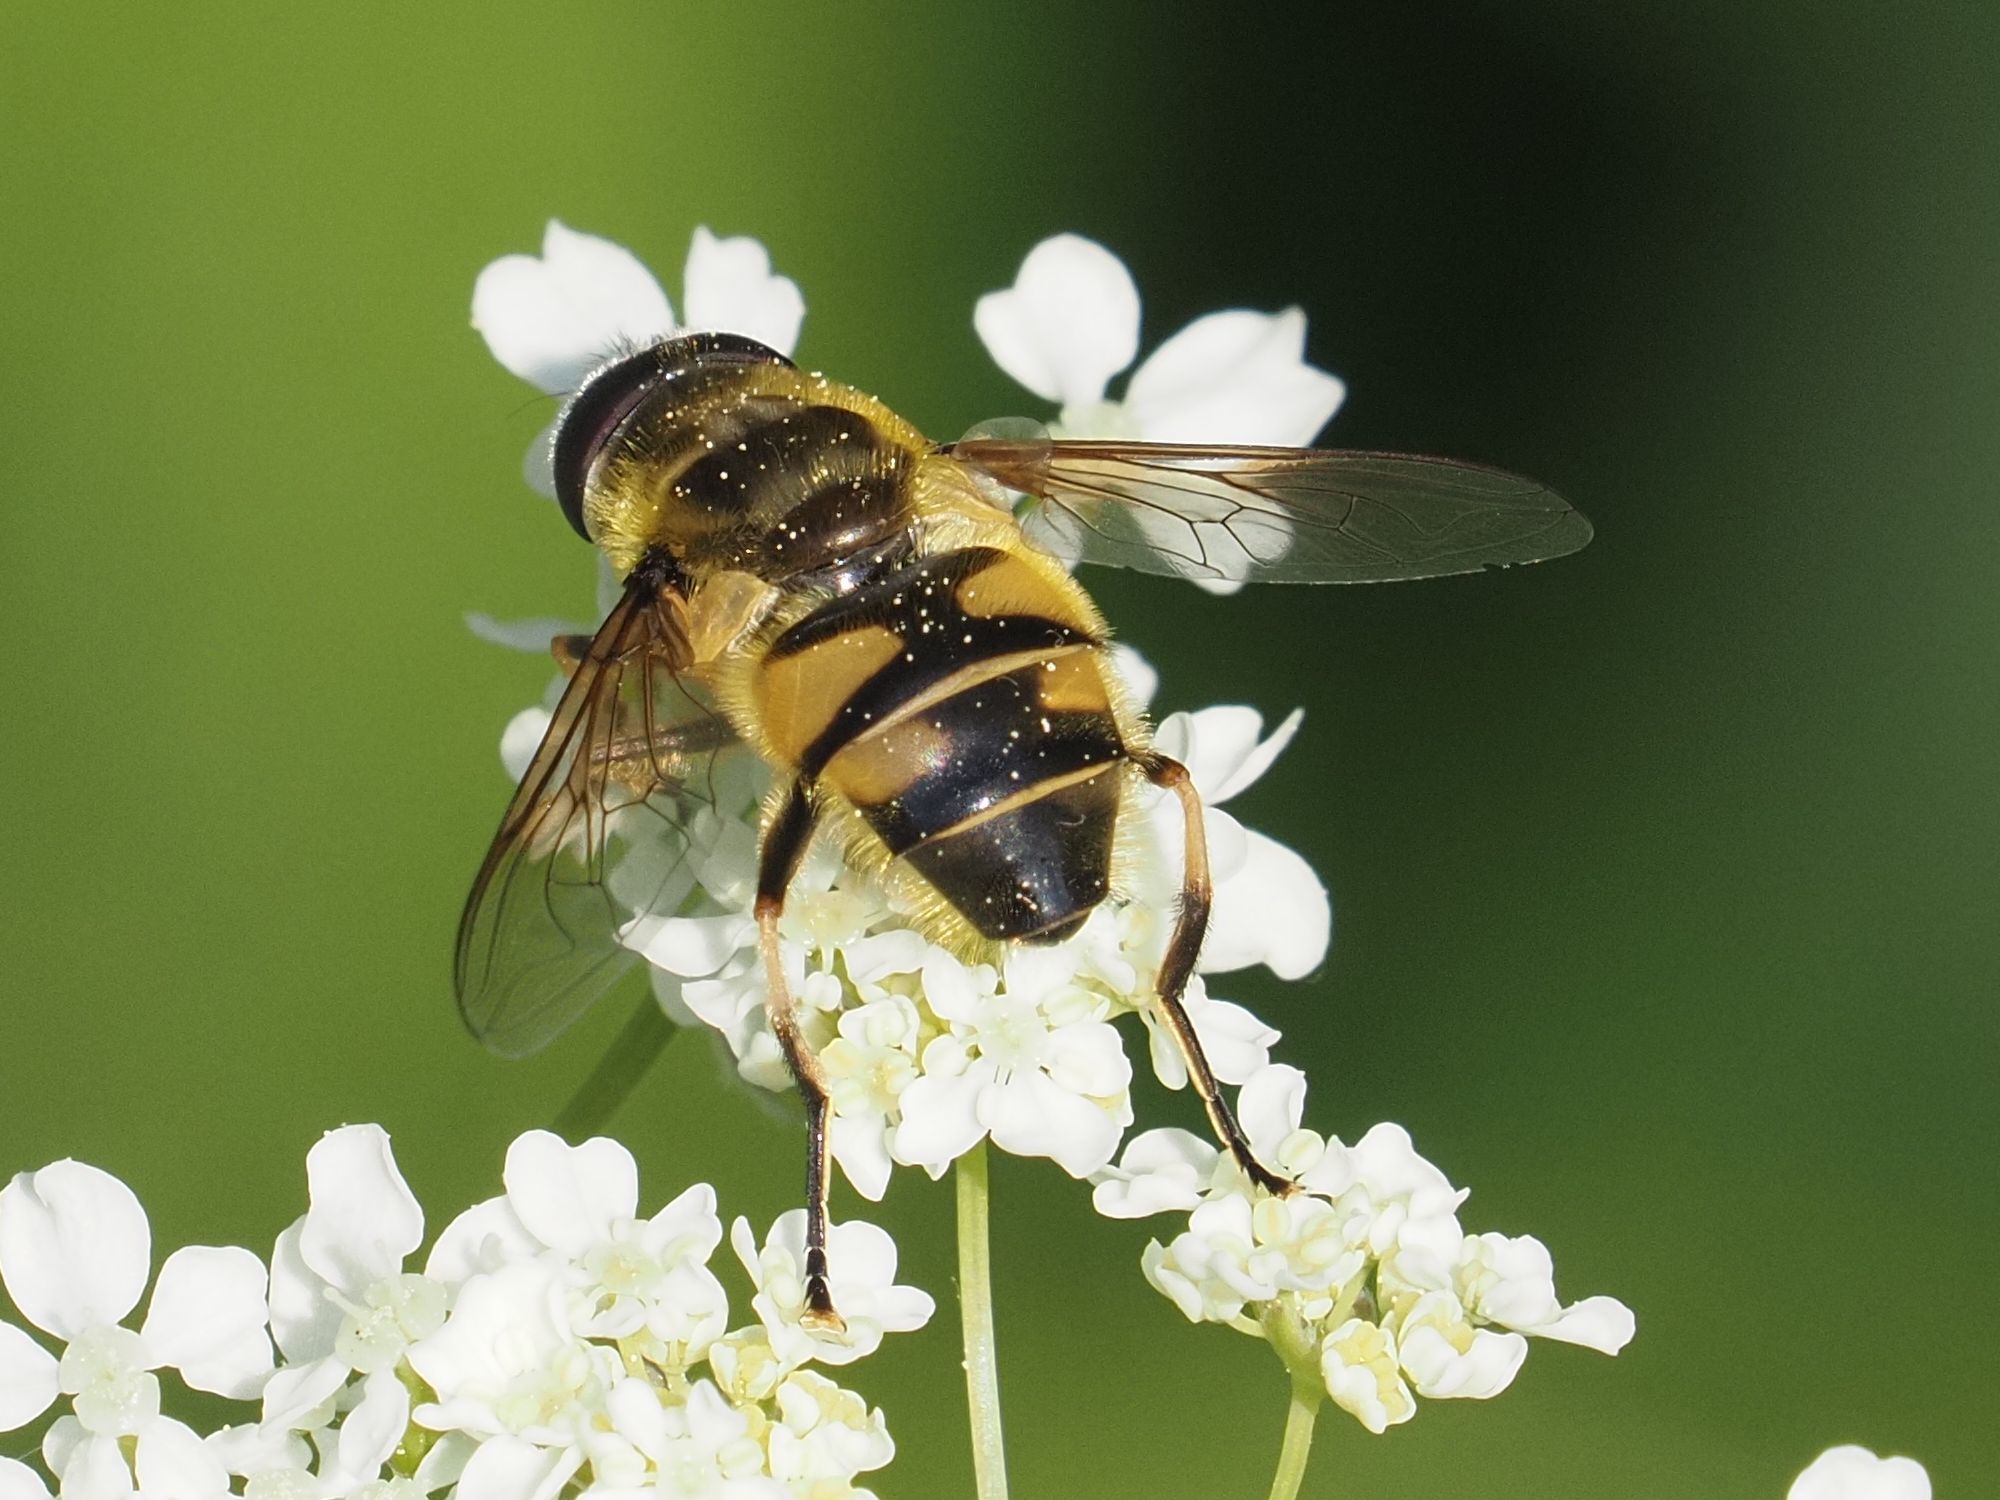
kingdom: Animalia
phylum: Arthropoda
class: Insecta
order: Diptera
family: Syrphidae
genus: Myathropa
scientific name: Myathropa florea
